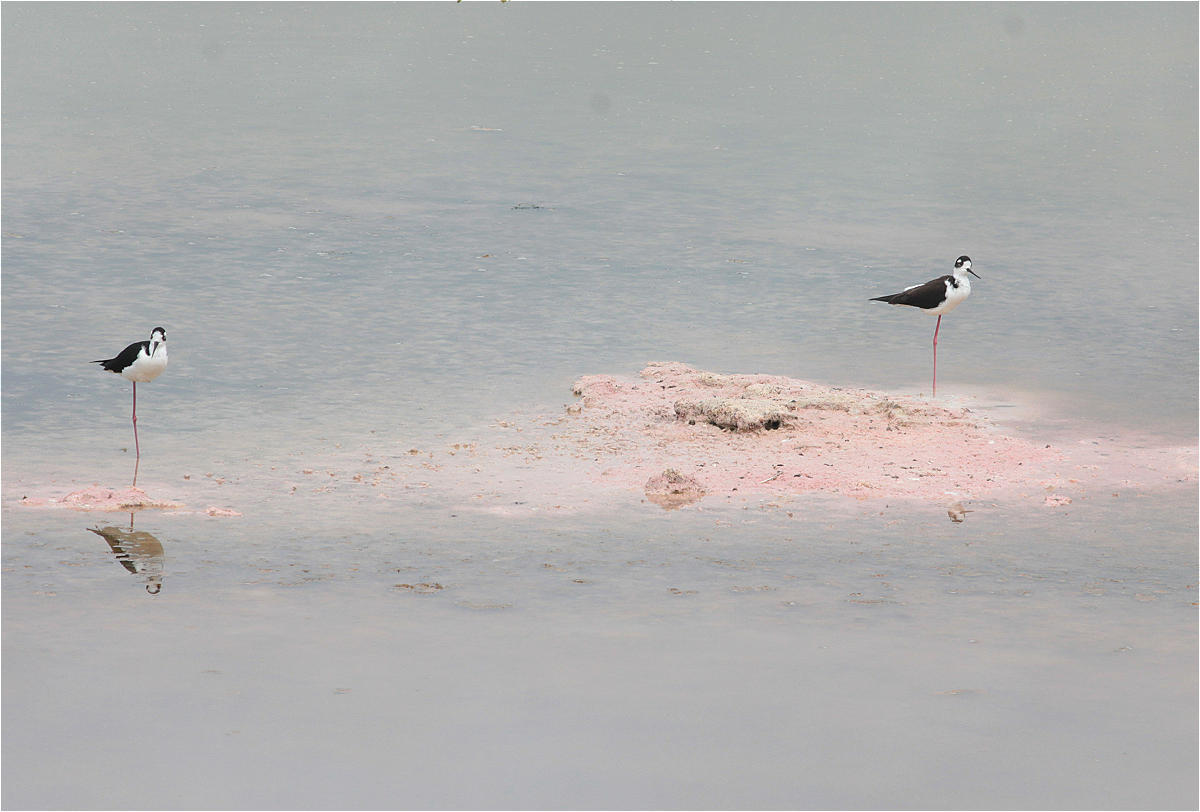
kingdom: Animalia
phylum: Chordata
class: Aves
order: Charadriiformes
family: Recurvirostridae
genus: Himantopus
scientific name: Himantopus mexicanus
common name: Black-necked stilt
